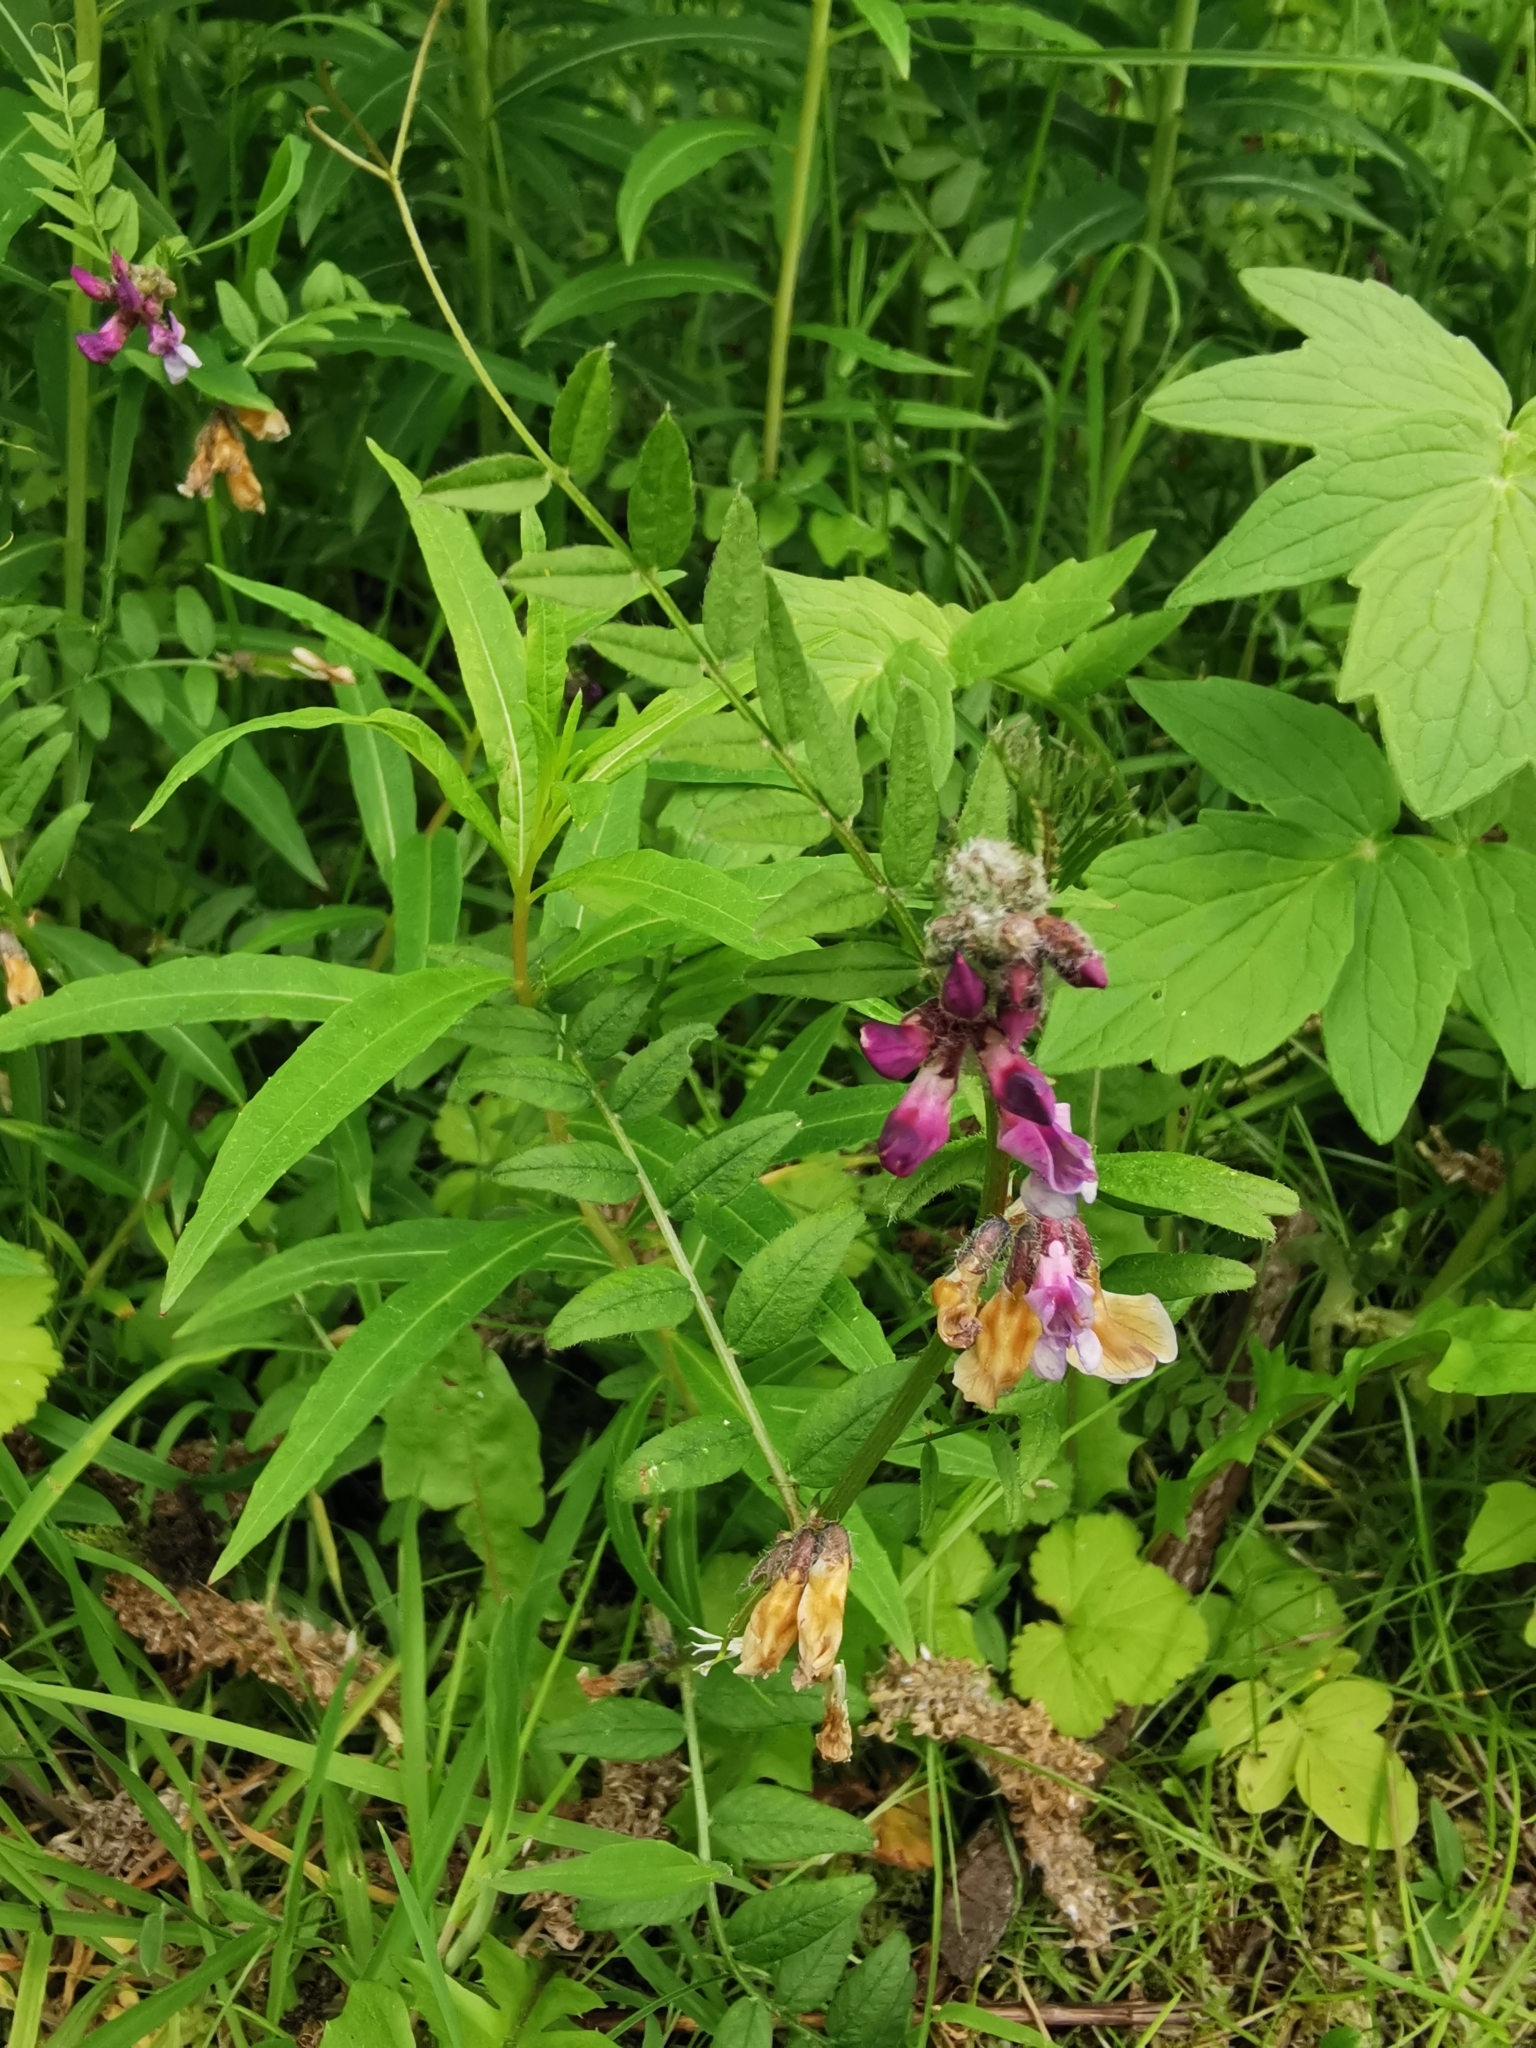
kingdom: Plantae
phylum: Tracheophyta
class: Magnoliopsida
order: Fabales
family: Fabaceae
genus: Vicia
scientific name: Vicia sepium
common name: Bush vetch
